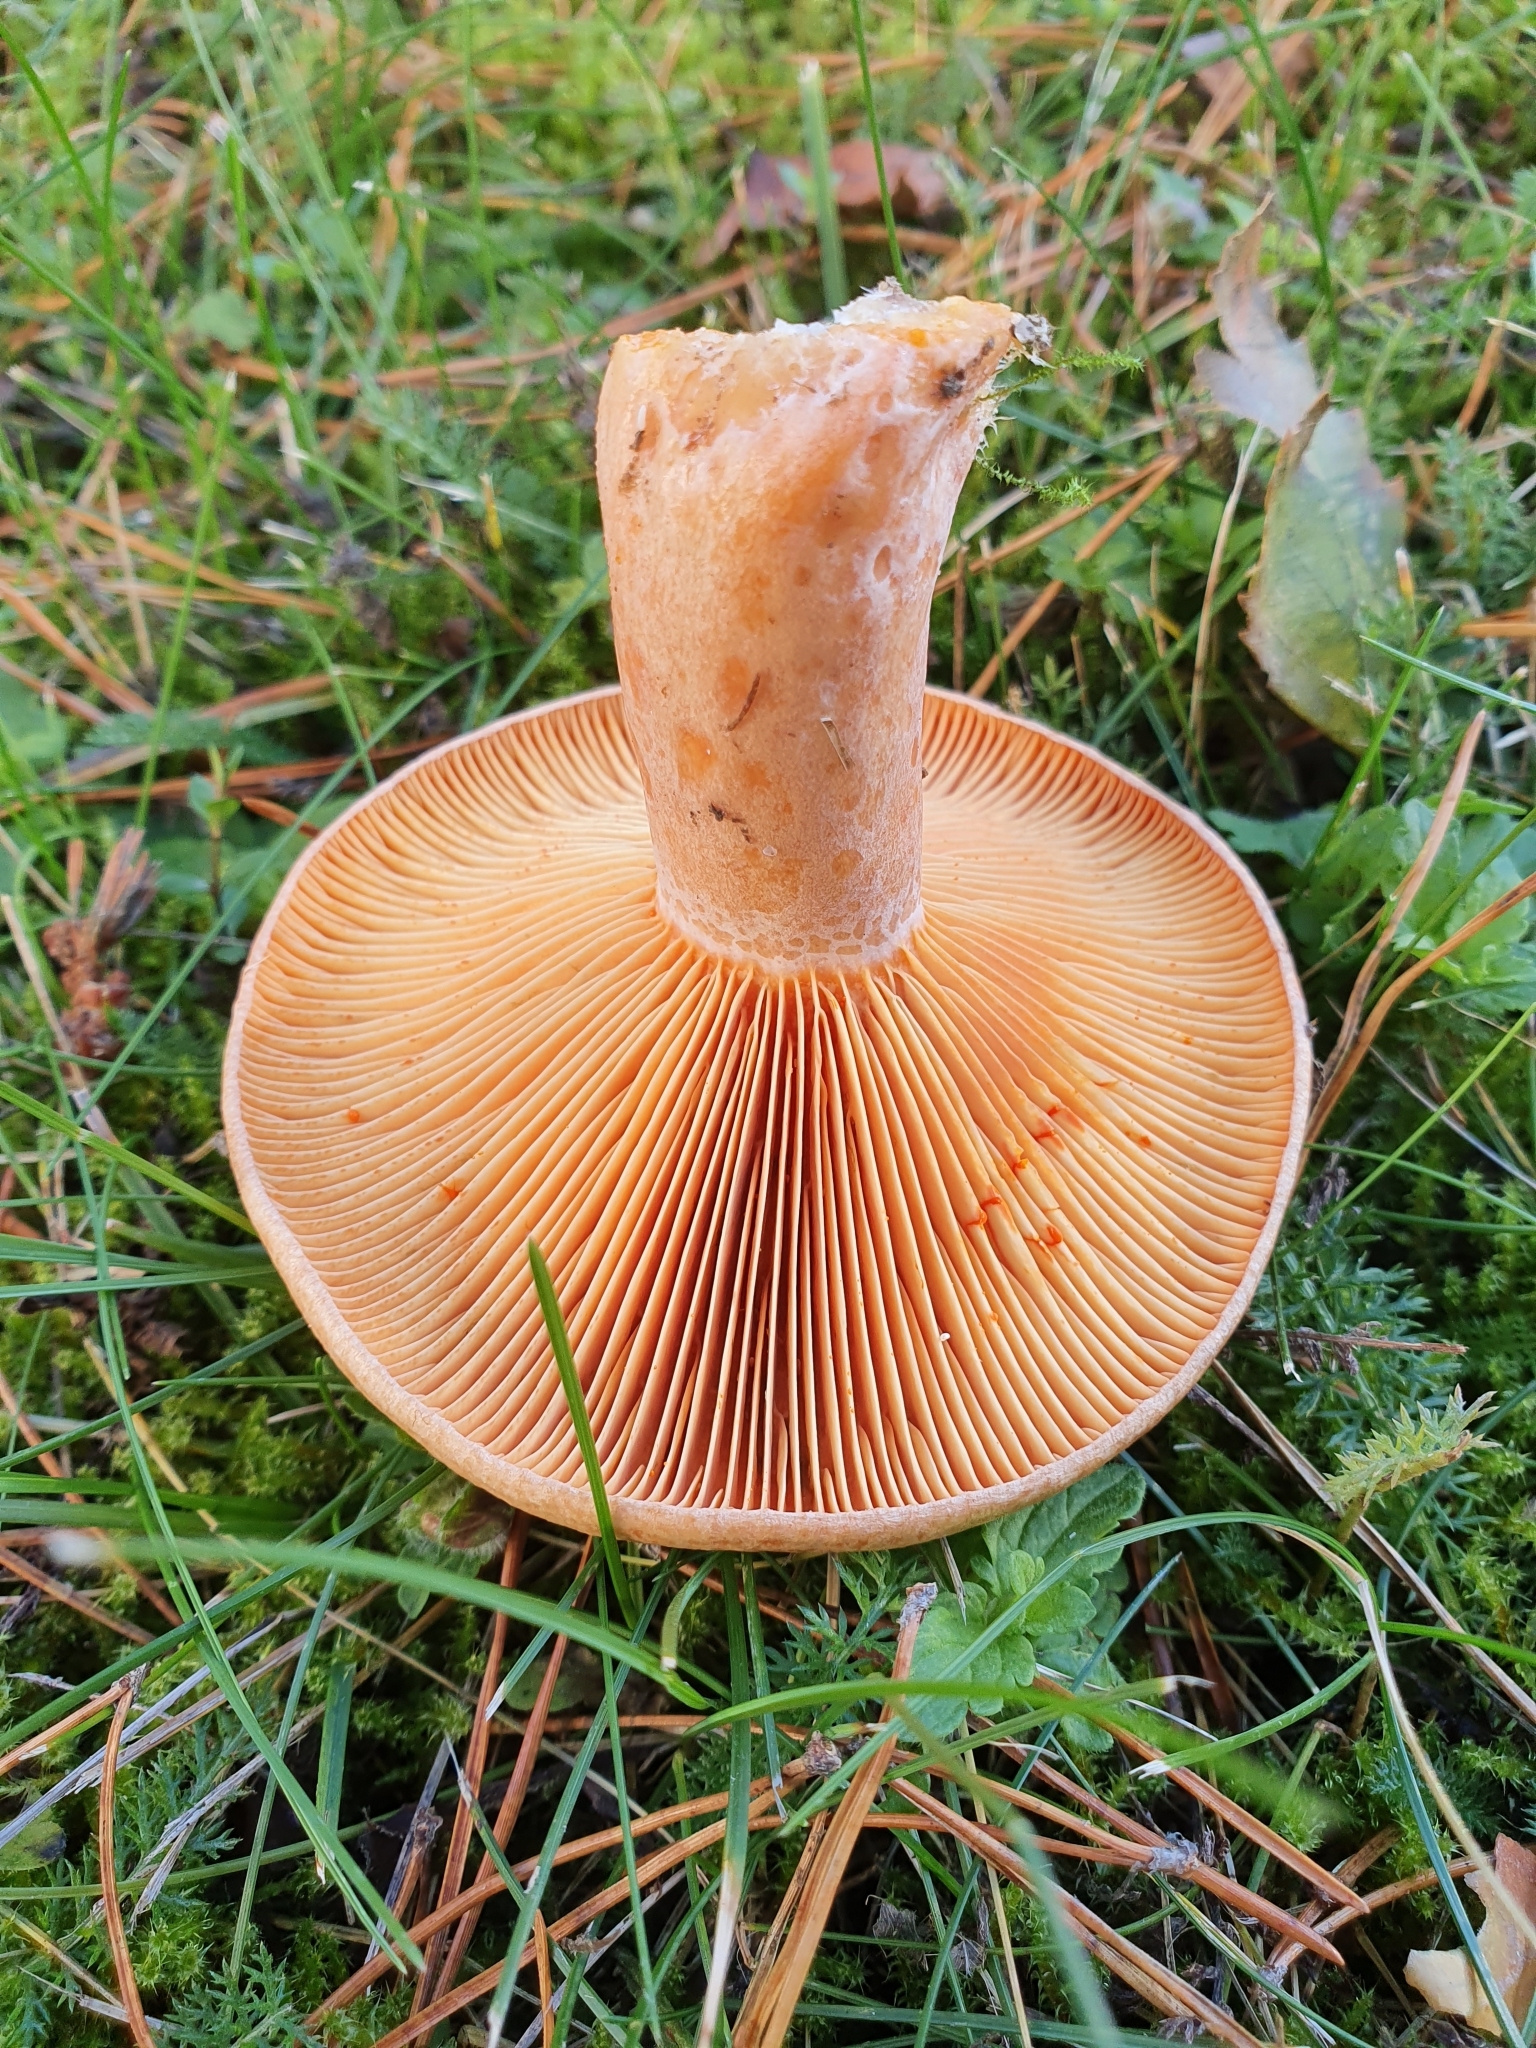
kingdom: Fungi
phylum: Basidiomycota
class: Agaricomycetes
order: Russulales
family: Russulaceae
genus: Lactarius
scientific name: Lactarius deliciosus
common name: Saffron milk-cap
